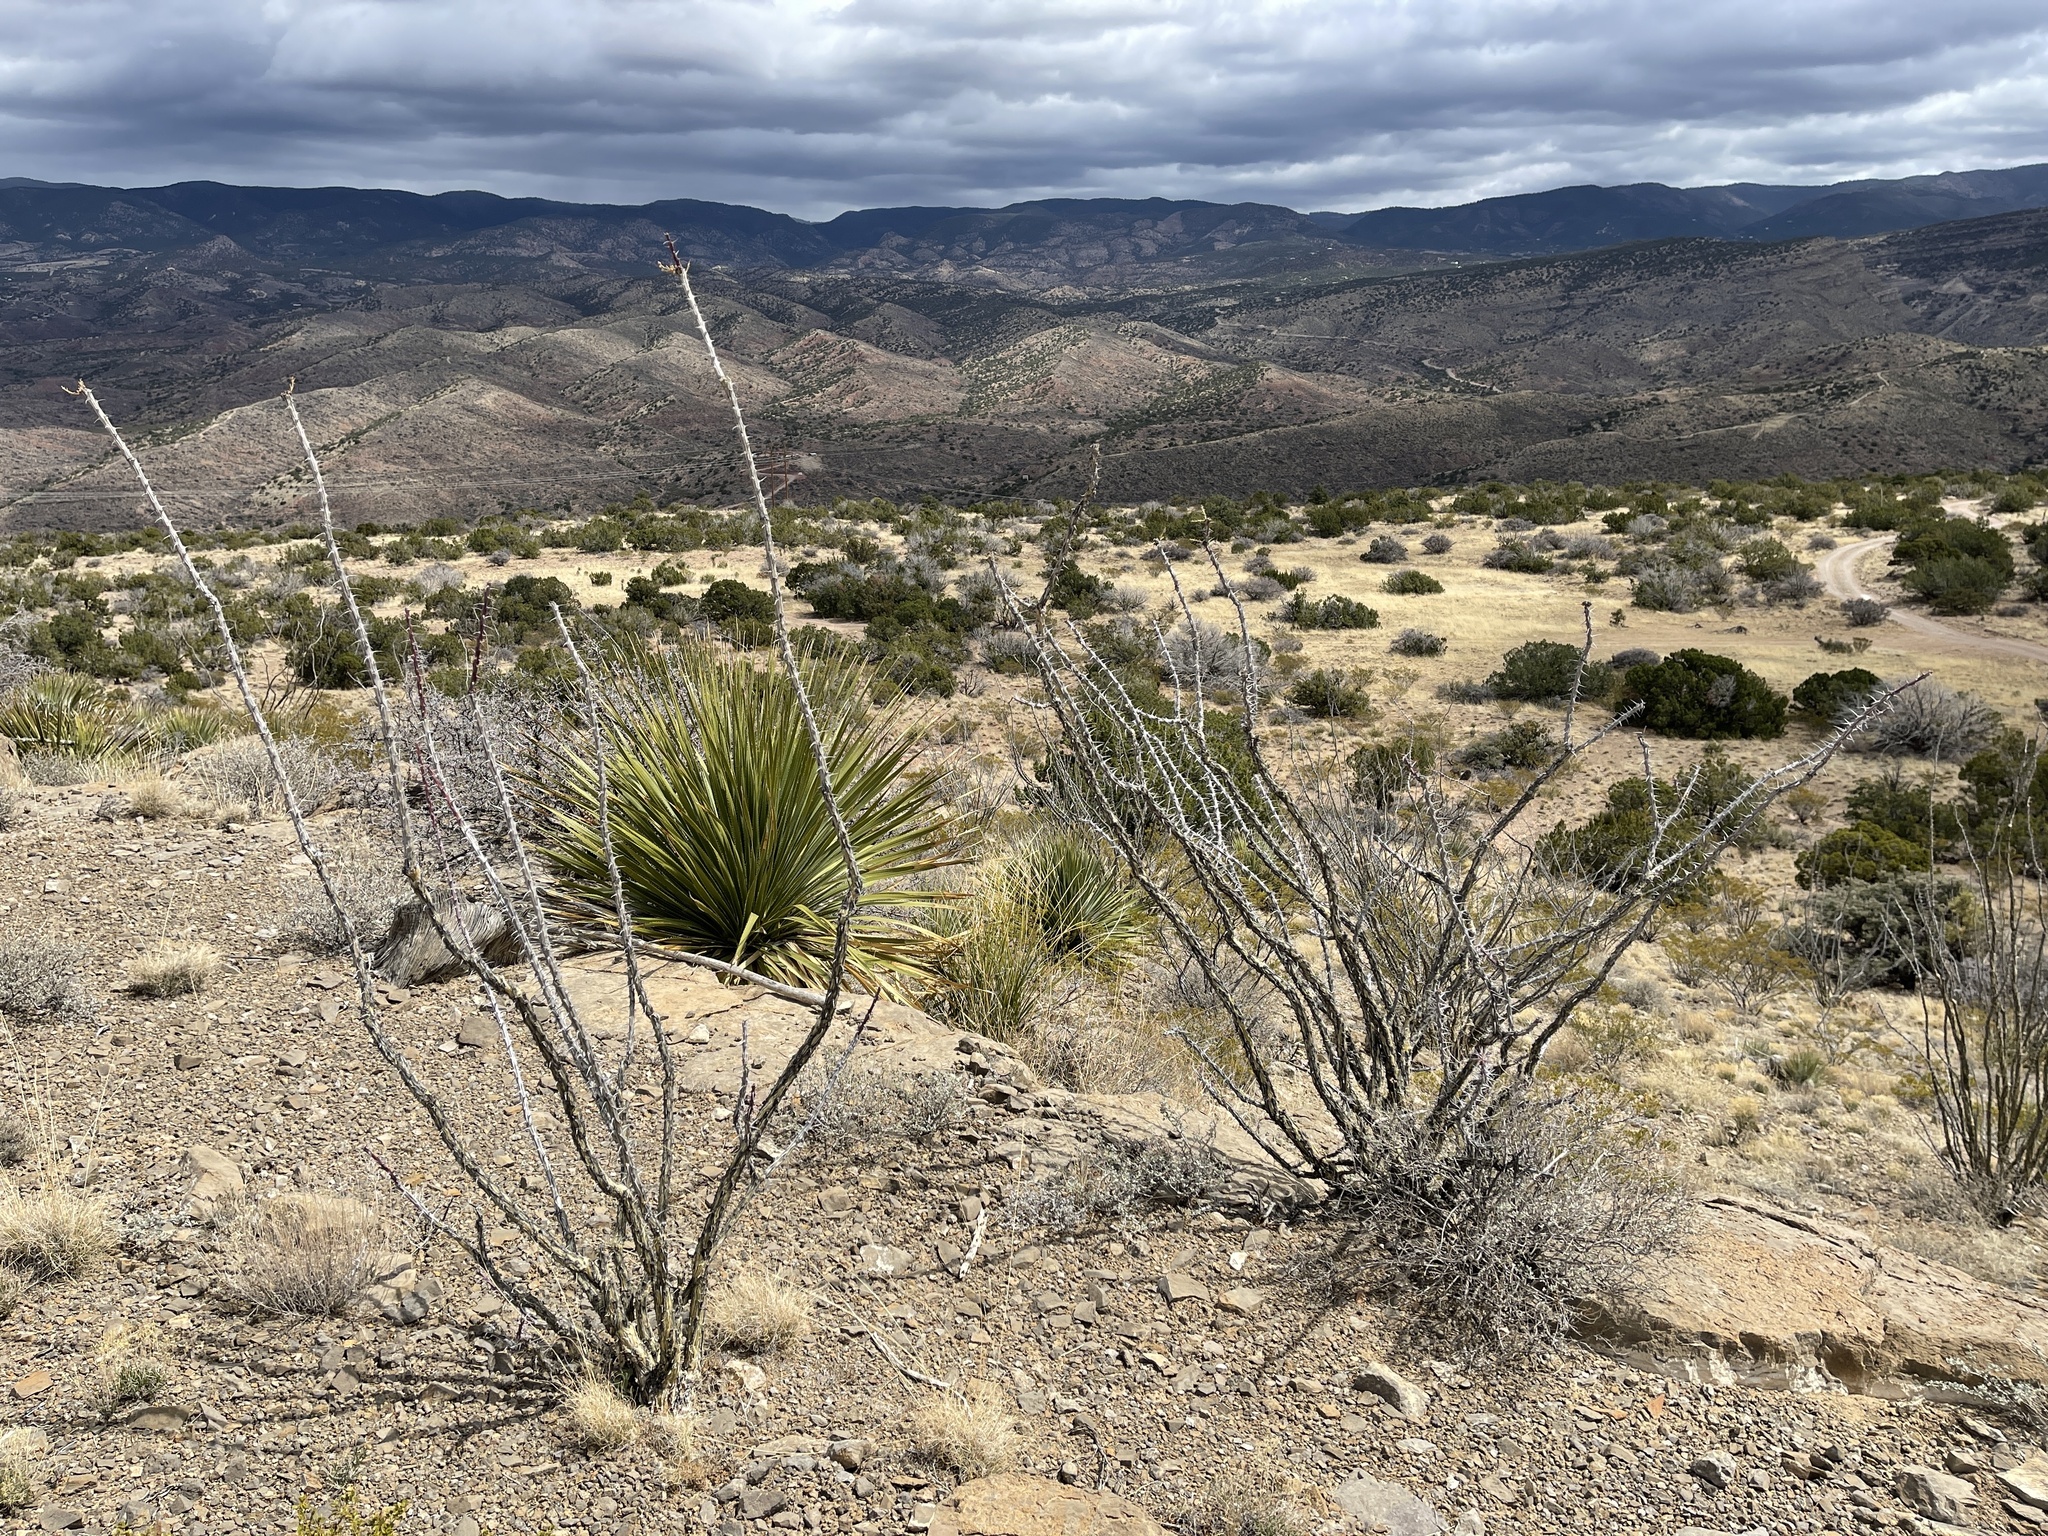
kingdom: Plantae
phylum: Tracheophyta
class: Magnoliopsida
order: Ericales
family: Fouquieriaceae
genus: Fouquieria
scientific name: Fouquieria splendens
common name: Vine-cactus
